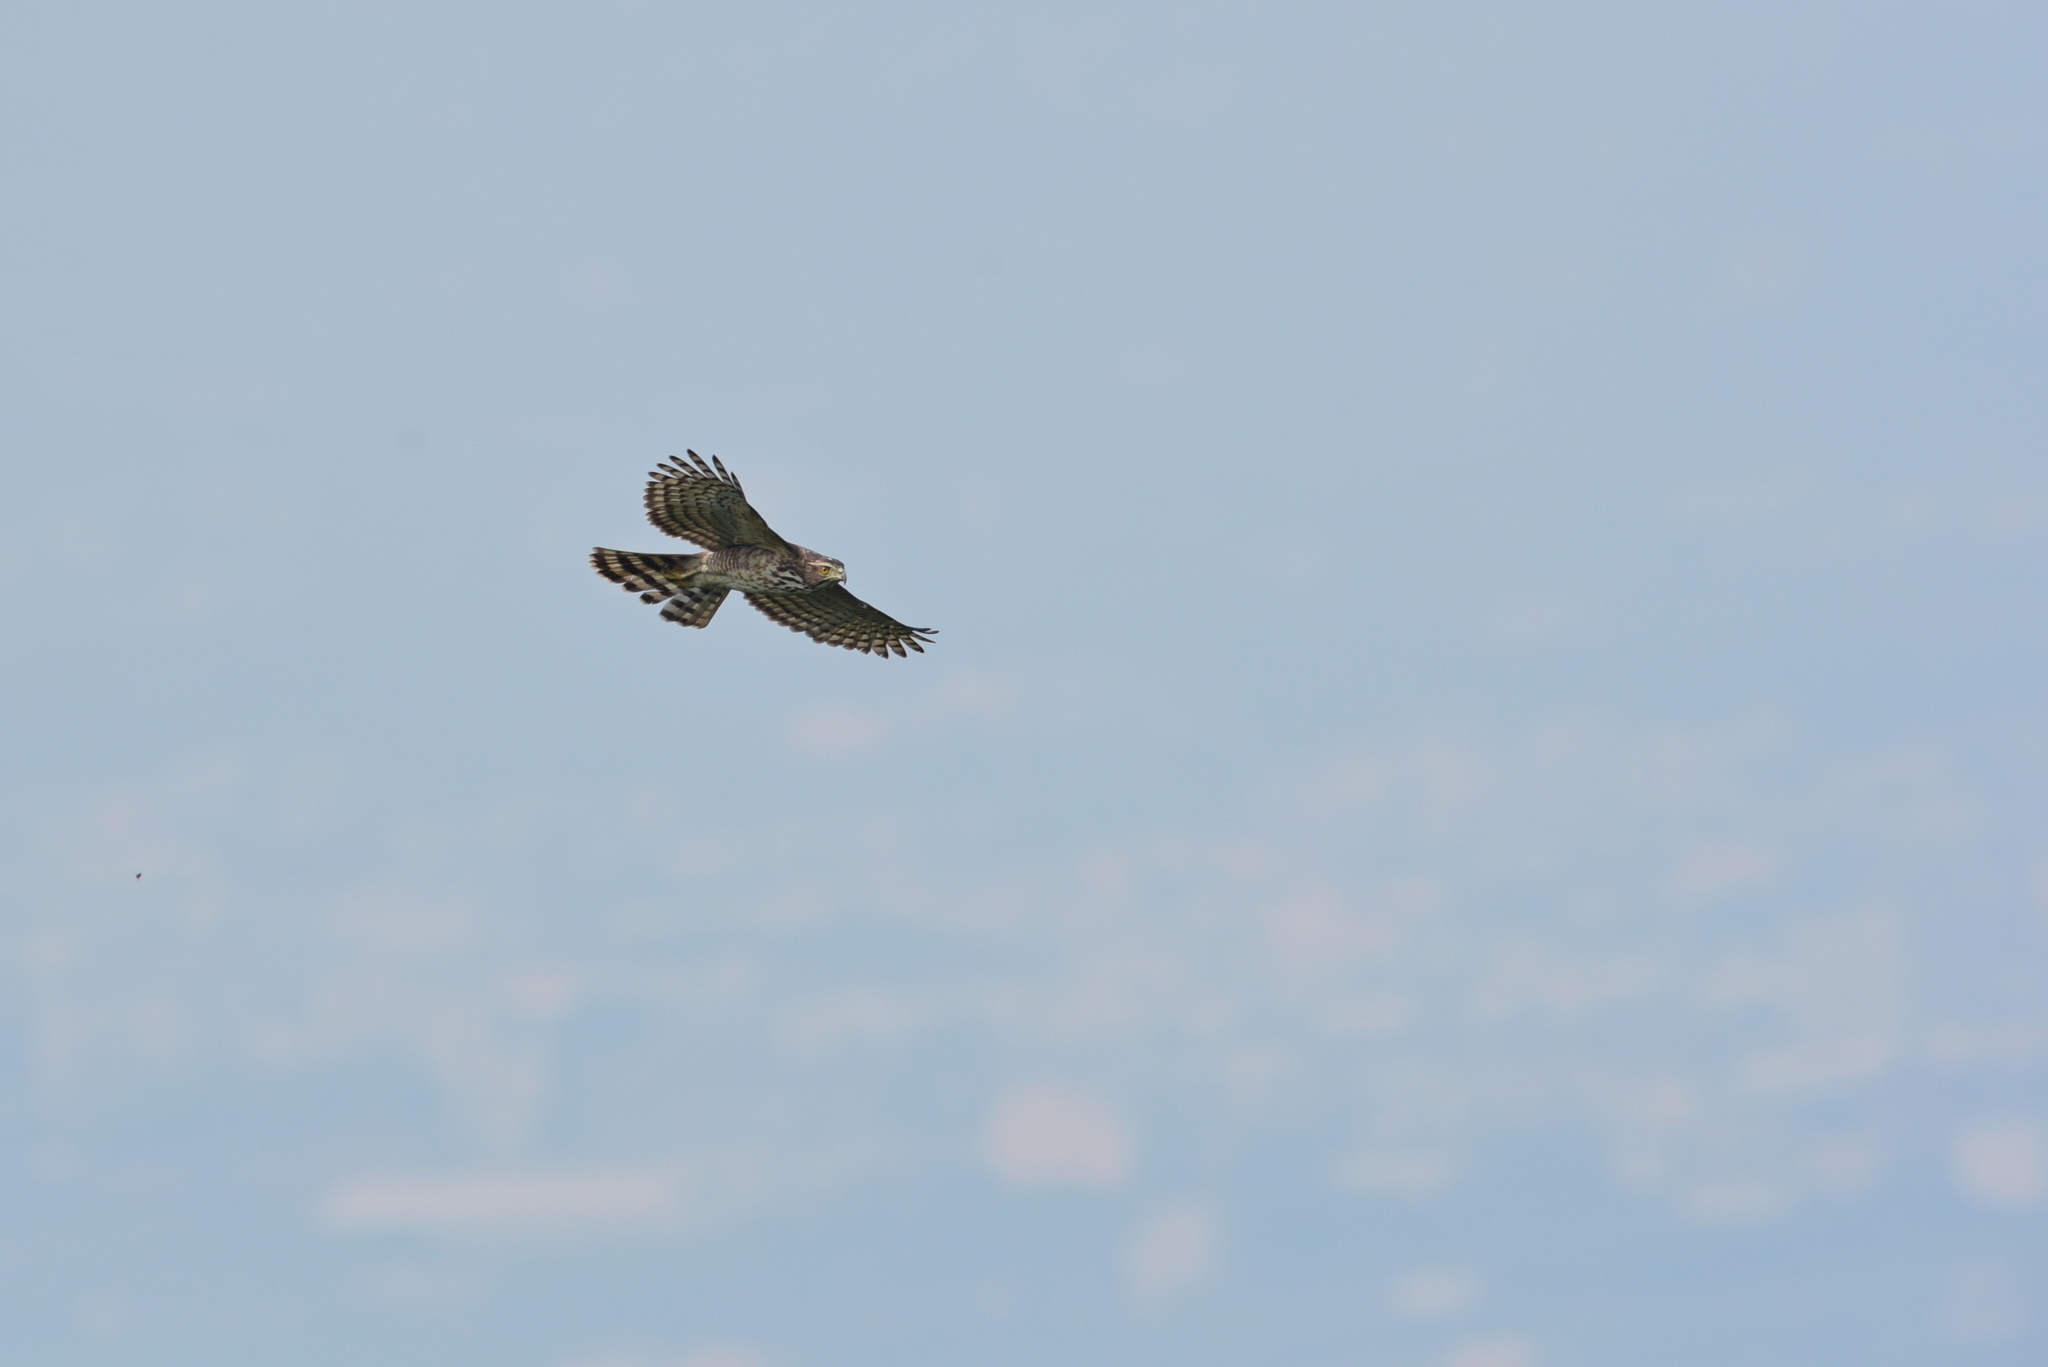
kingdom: Animalia
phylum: Chordata
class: Aves
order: Accipitriformes
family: Accipitridae
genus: Accipiter
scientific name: Accipiter trivirgatus
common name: Crested goshawk
